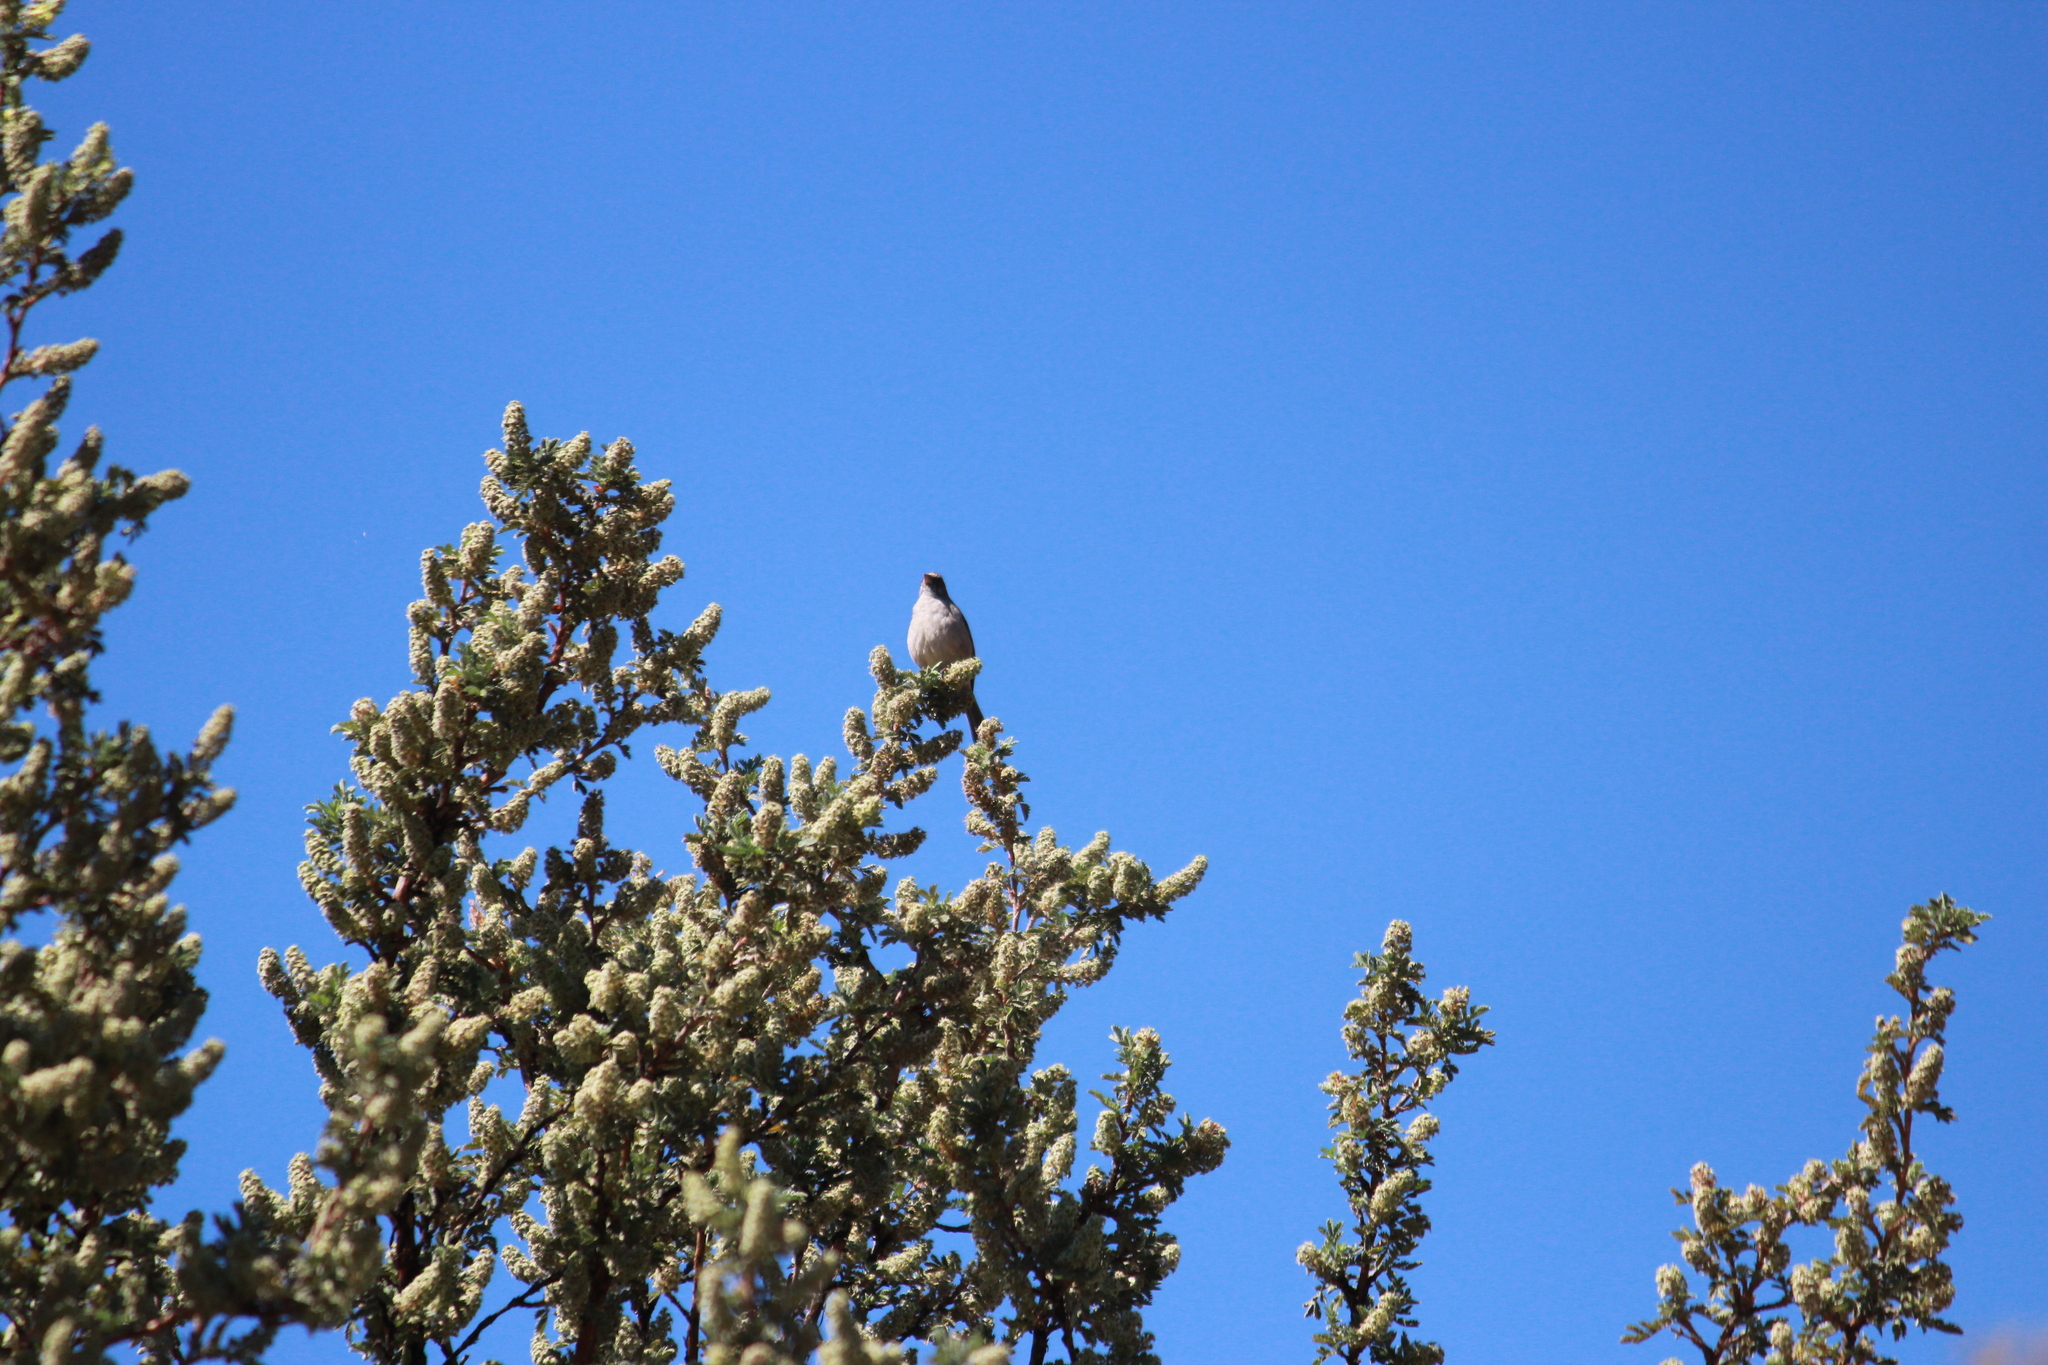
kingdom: Animalia
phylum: Chordata
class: Aves
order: Passeriformes
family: Fringillidae
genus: Crithagra
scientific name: Crithagra gularis
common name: Streaky-headed seedeater
